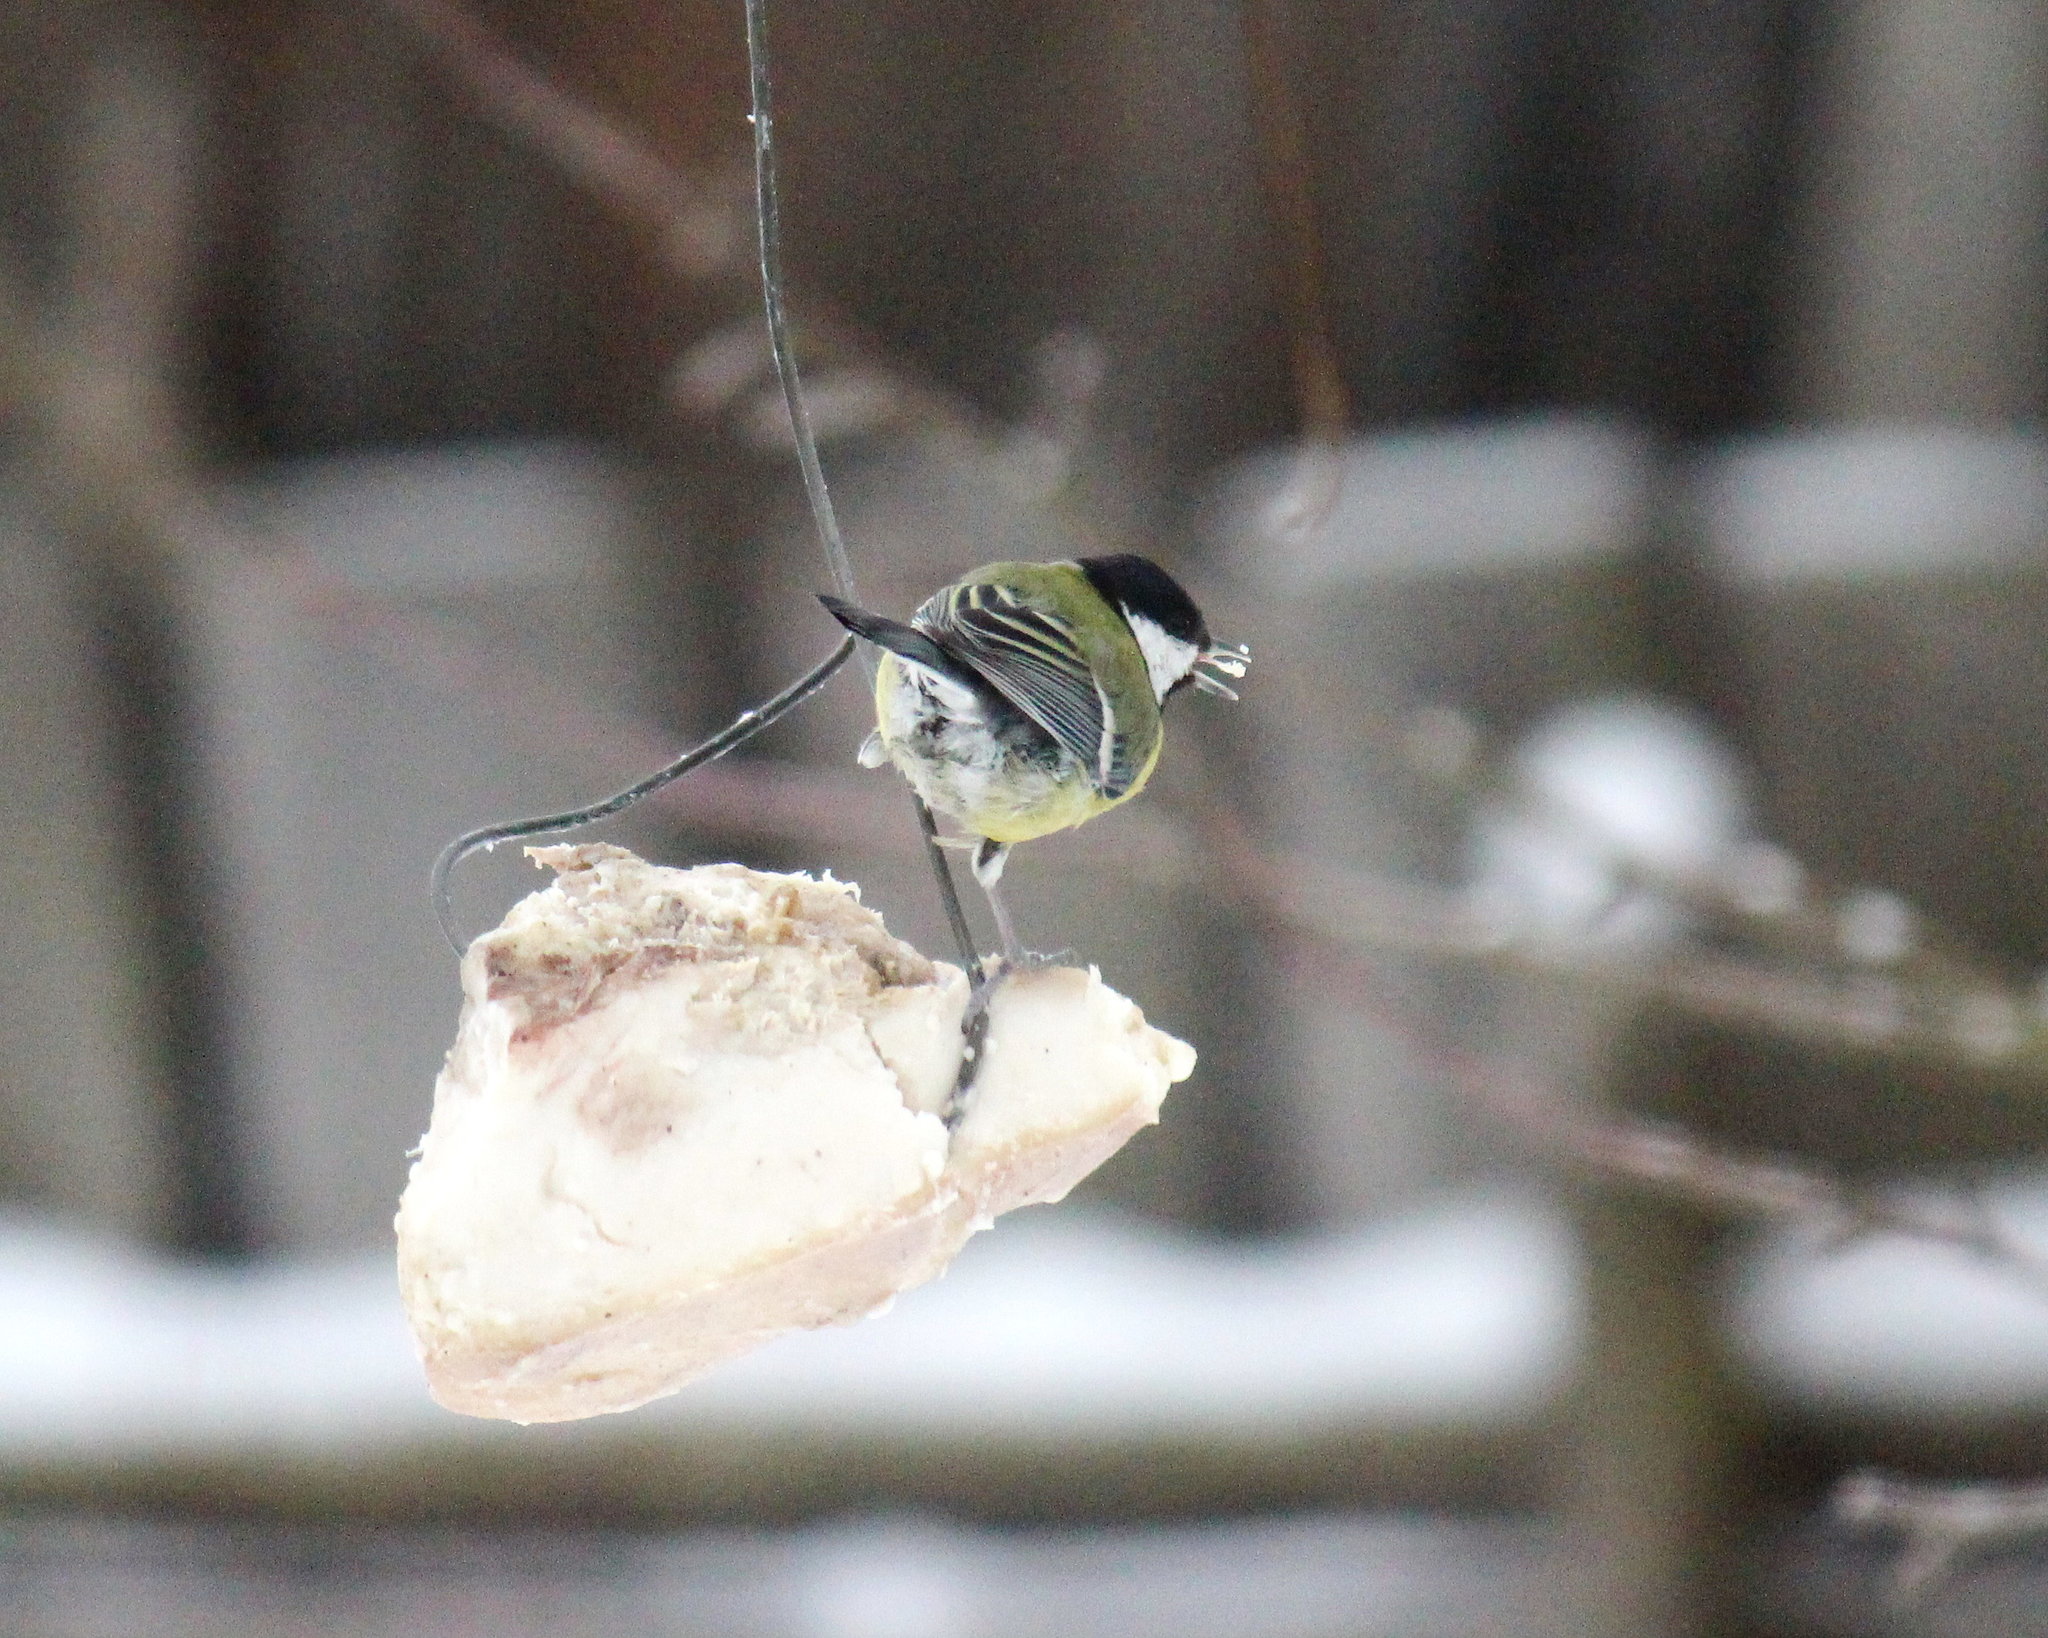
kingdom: Animalia
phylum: Chordata
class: Aves
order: Passeriformes
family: Paridae
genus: Parus
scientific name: Parus major
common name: Great tit
